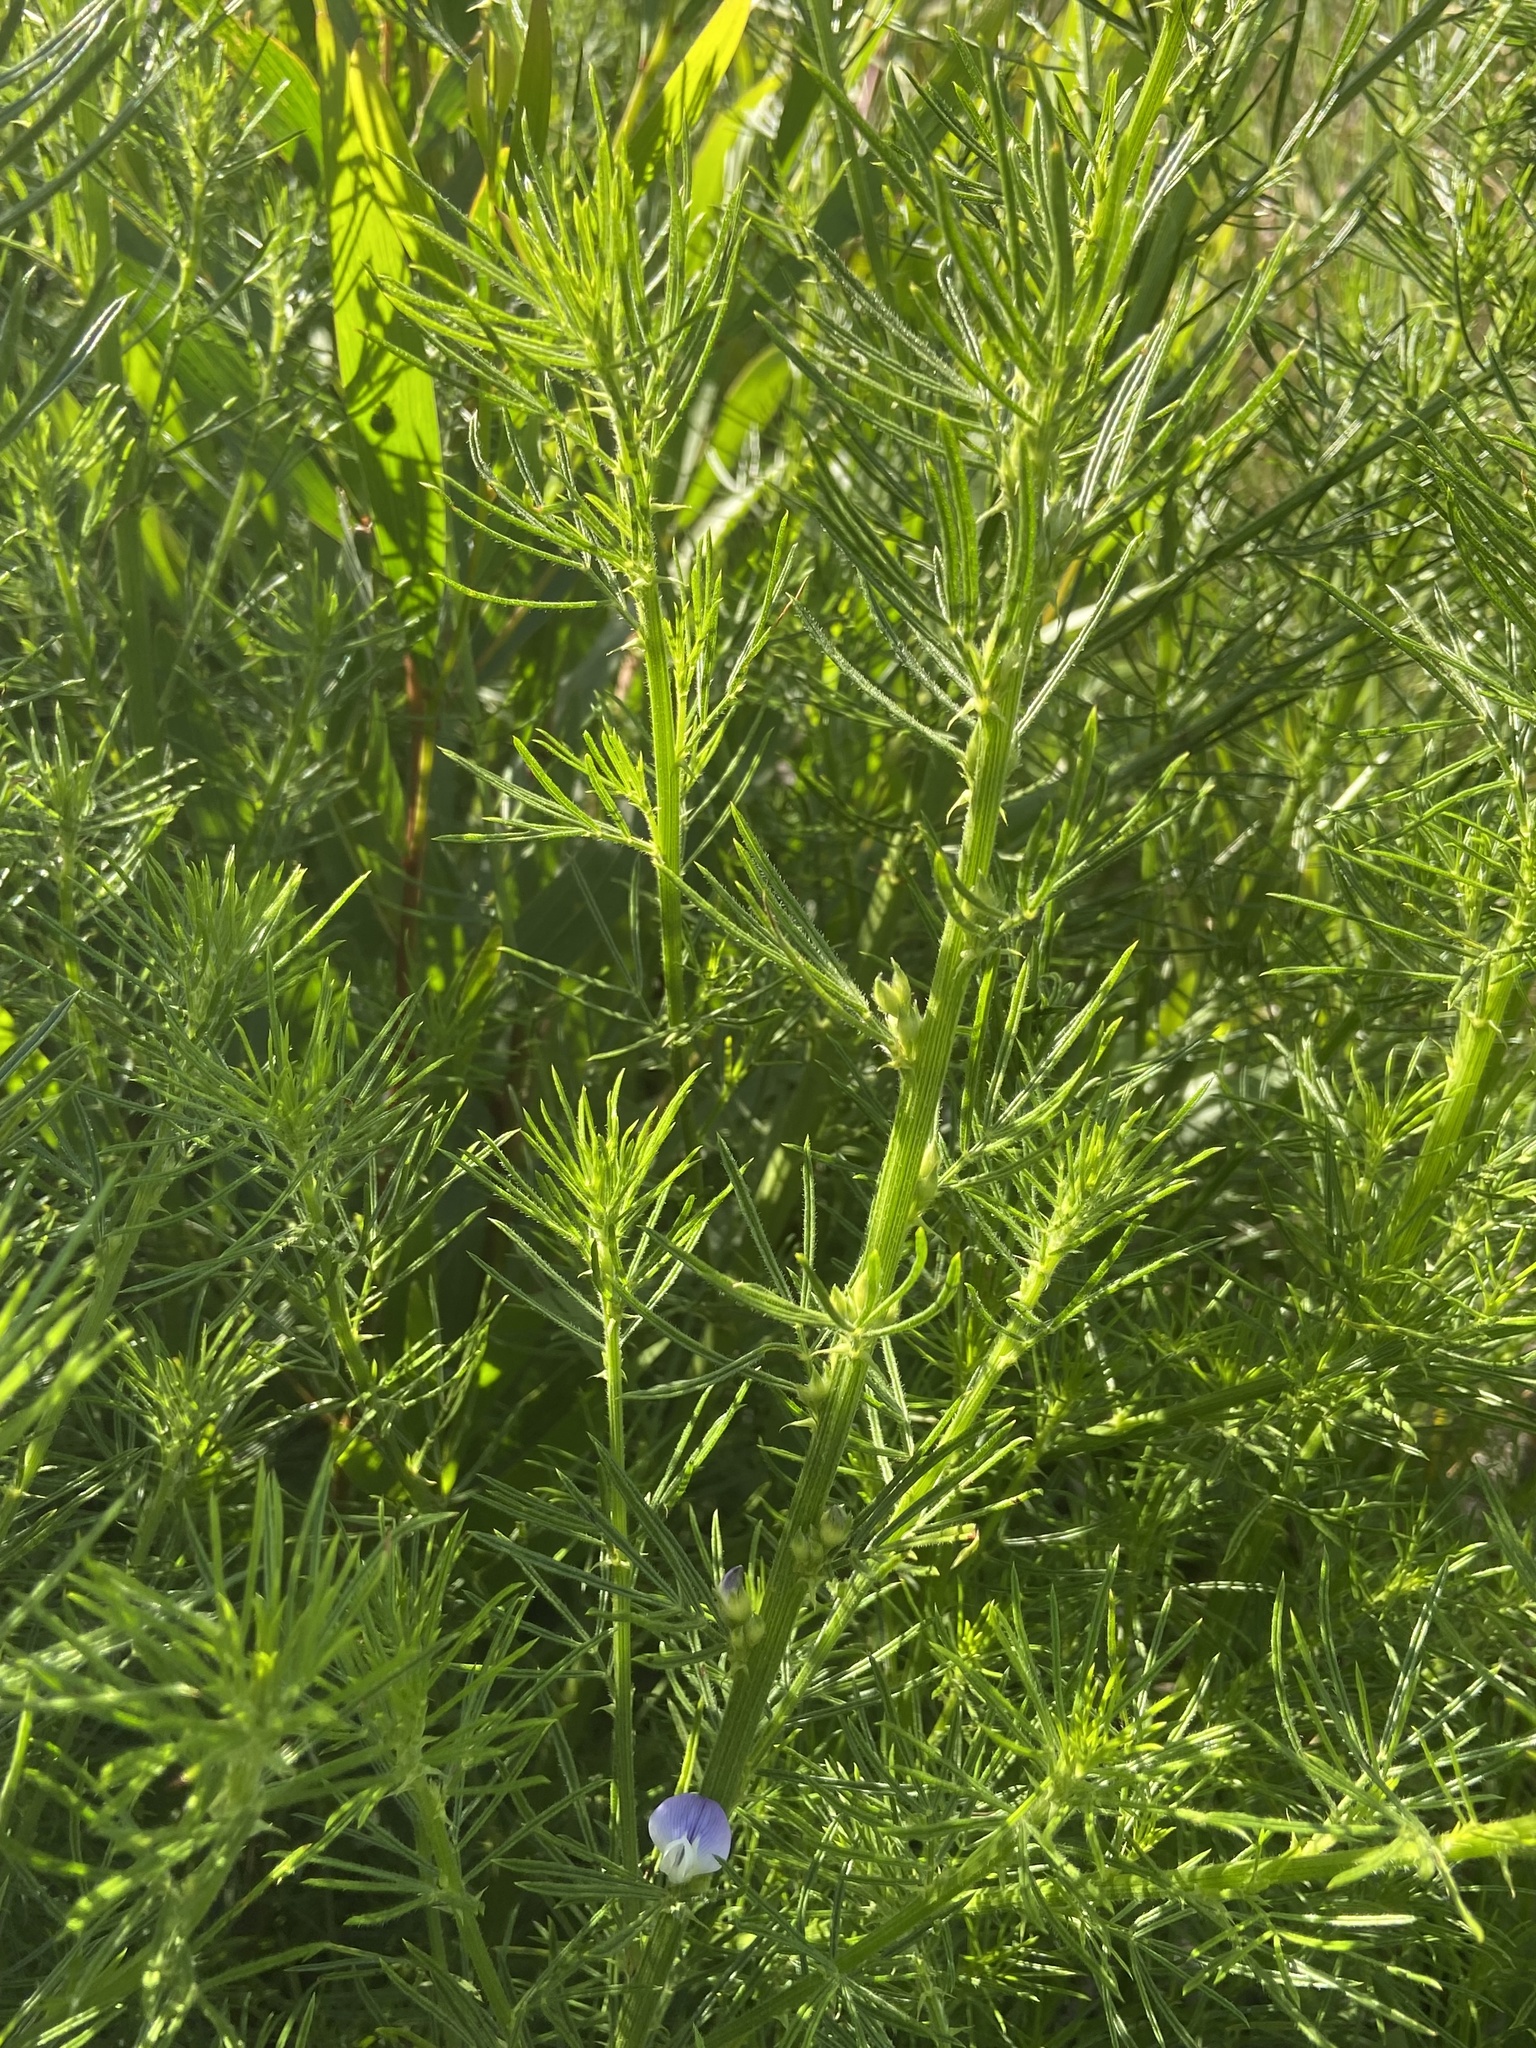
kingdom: Plantae
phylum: Tracheophyta
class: Magnoliopsida
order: Fabales
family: Fabaceae
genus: Psoralea
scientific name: Psoralea pinnata
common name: African scurfpea
